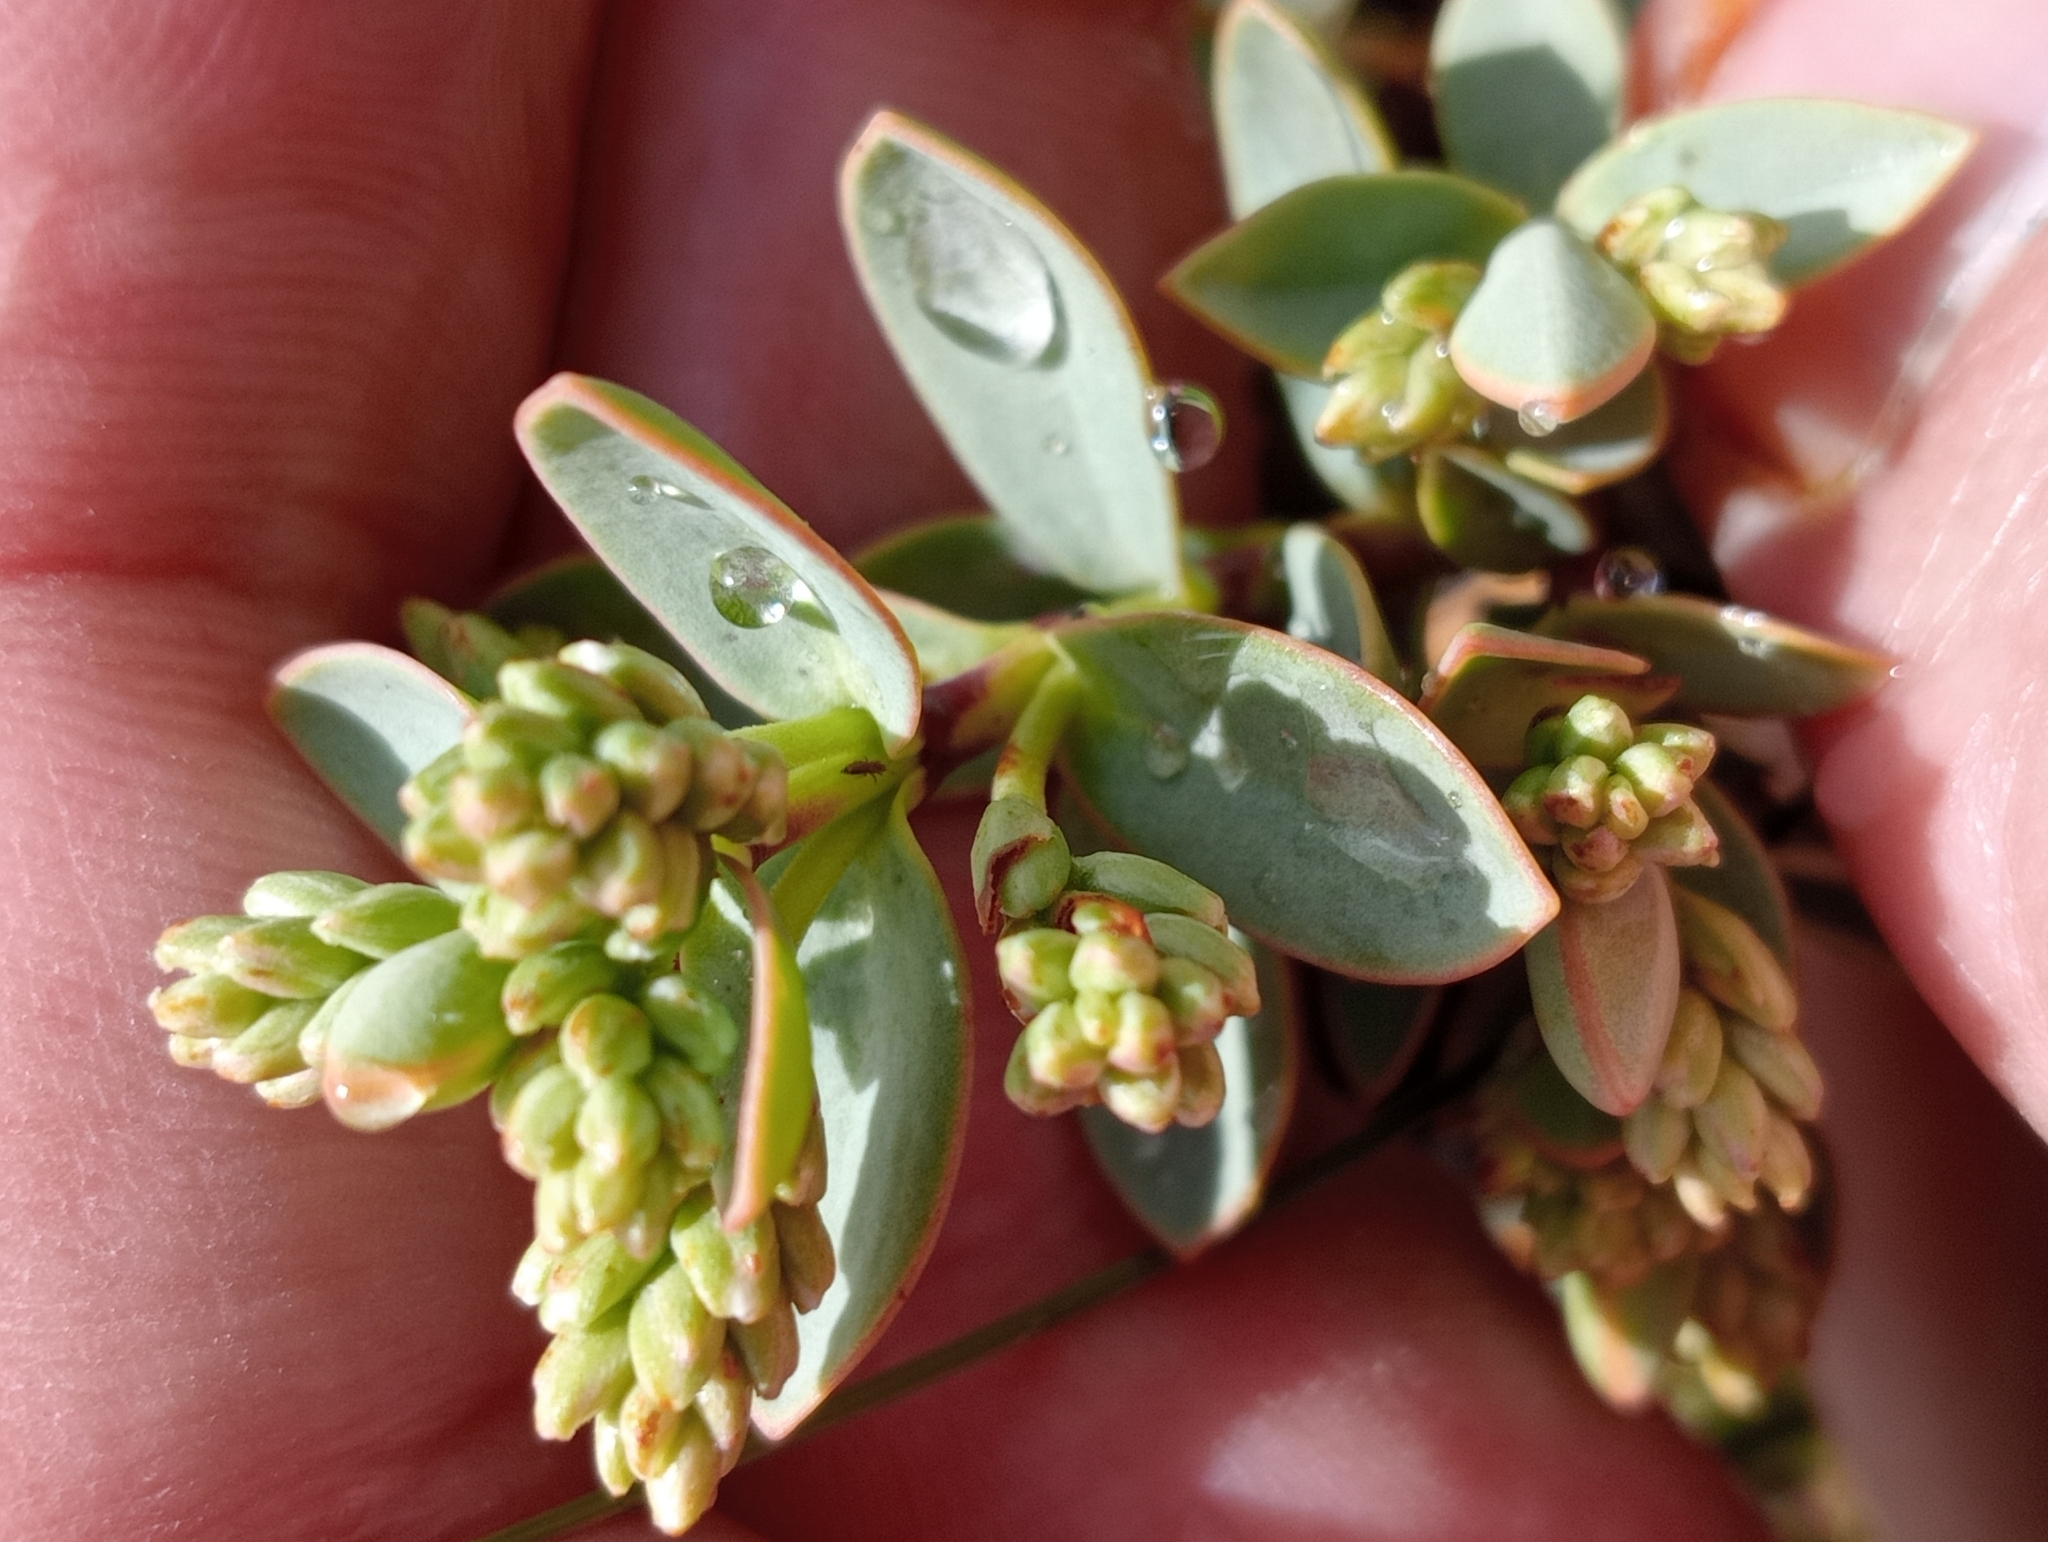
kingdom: Plantae
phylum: Tracheophyta
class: Magnoliopsida
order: Lamiales
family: Plantaginaceae
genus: Veronica
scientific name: Veronica pinguifolia
